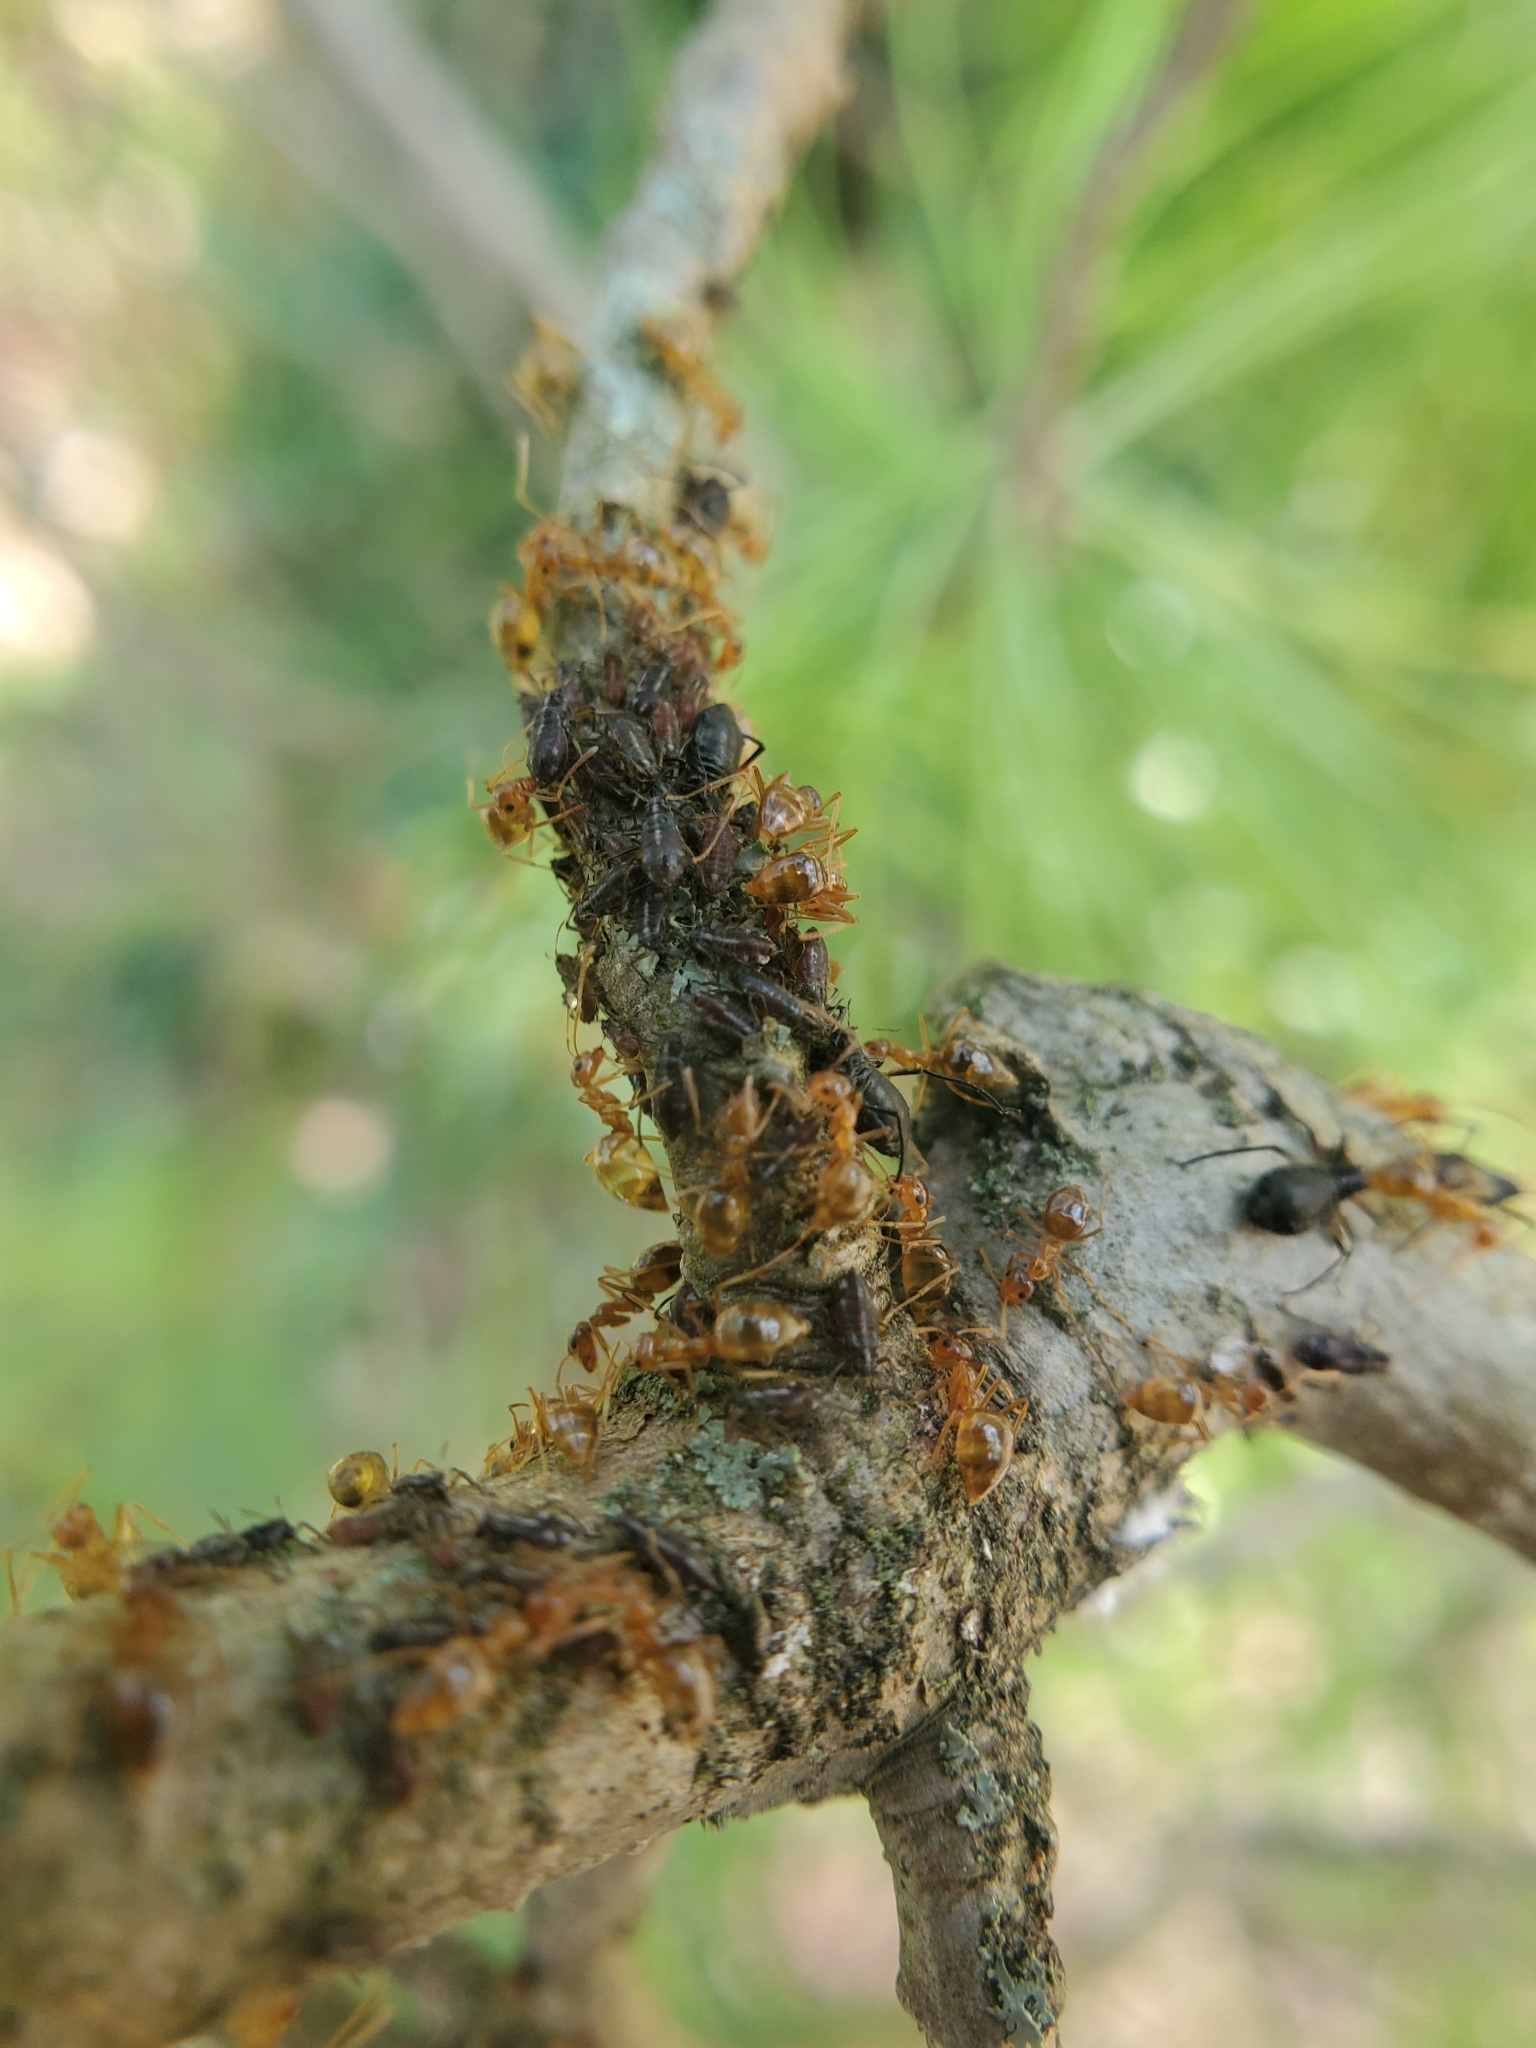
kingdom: Animalia
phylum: Arthropoda
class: Insecta
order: Hymenoptera
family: Formicidae
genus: Prenolepis
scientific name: Prenolepis imparis
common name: Small honey ant
